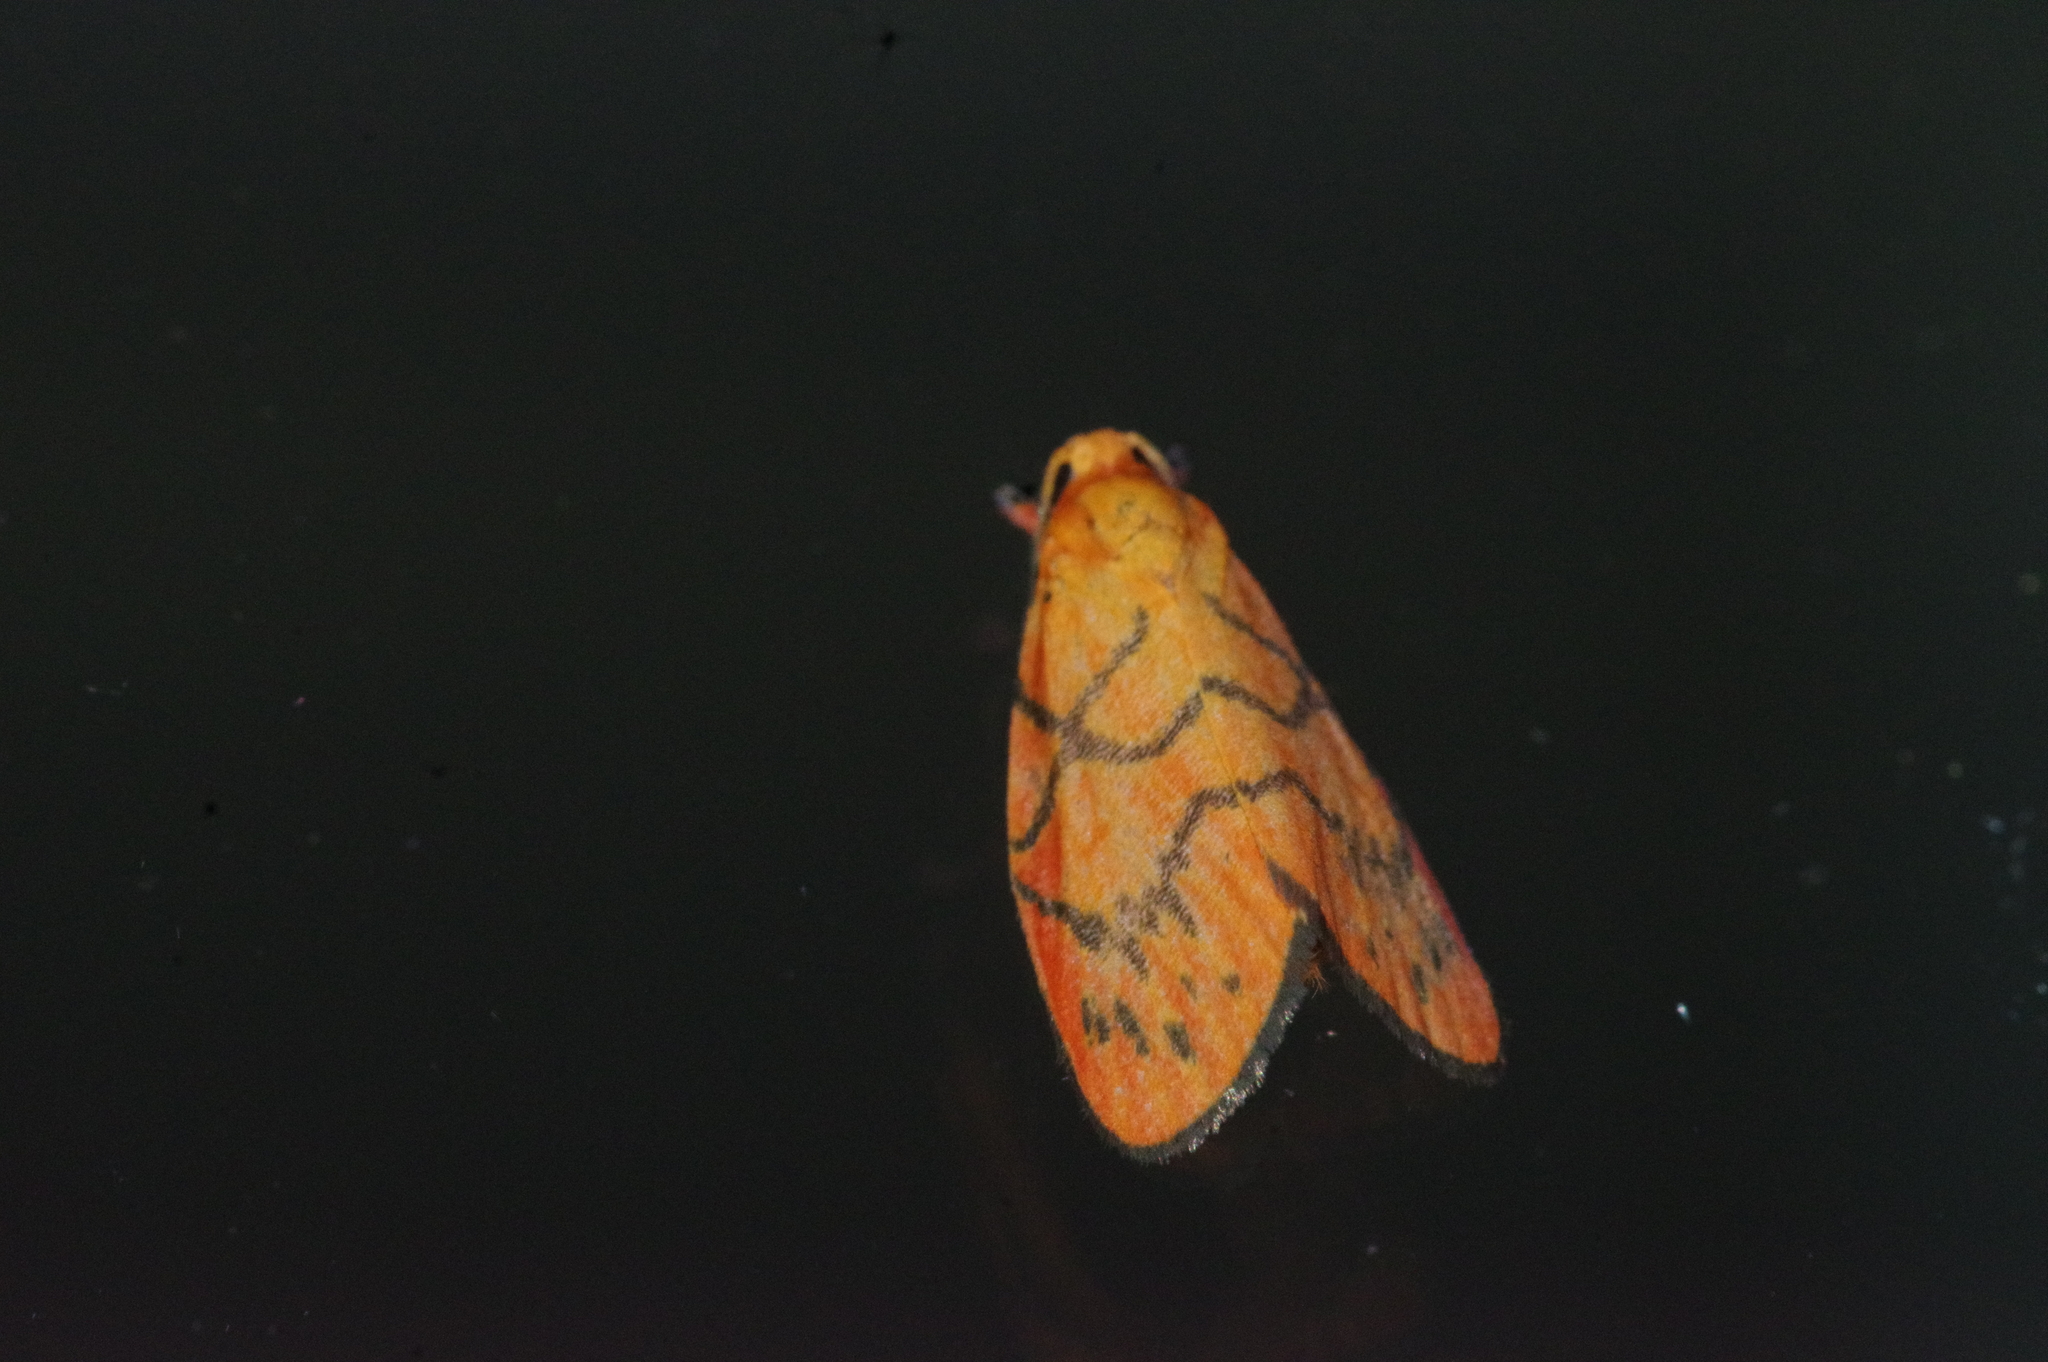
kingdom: Animalia
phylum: Arthropoda
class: Insecta
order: Lepidoptera
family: Erebidae
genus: Aberrasine
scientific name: Aberrasine aberrans
